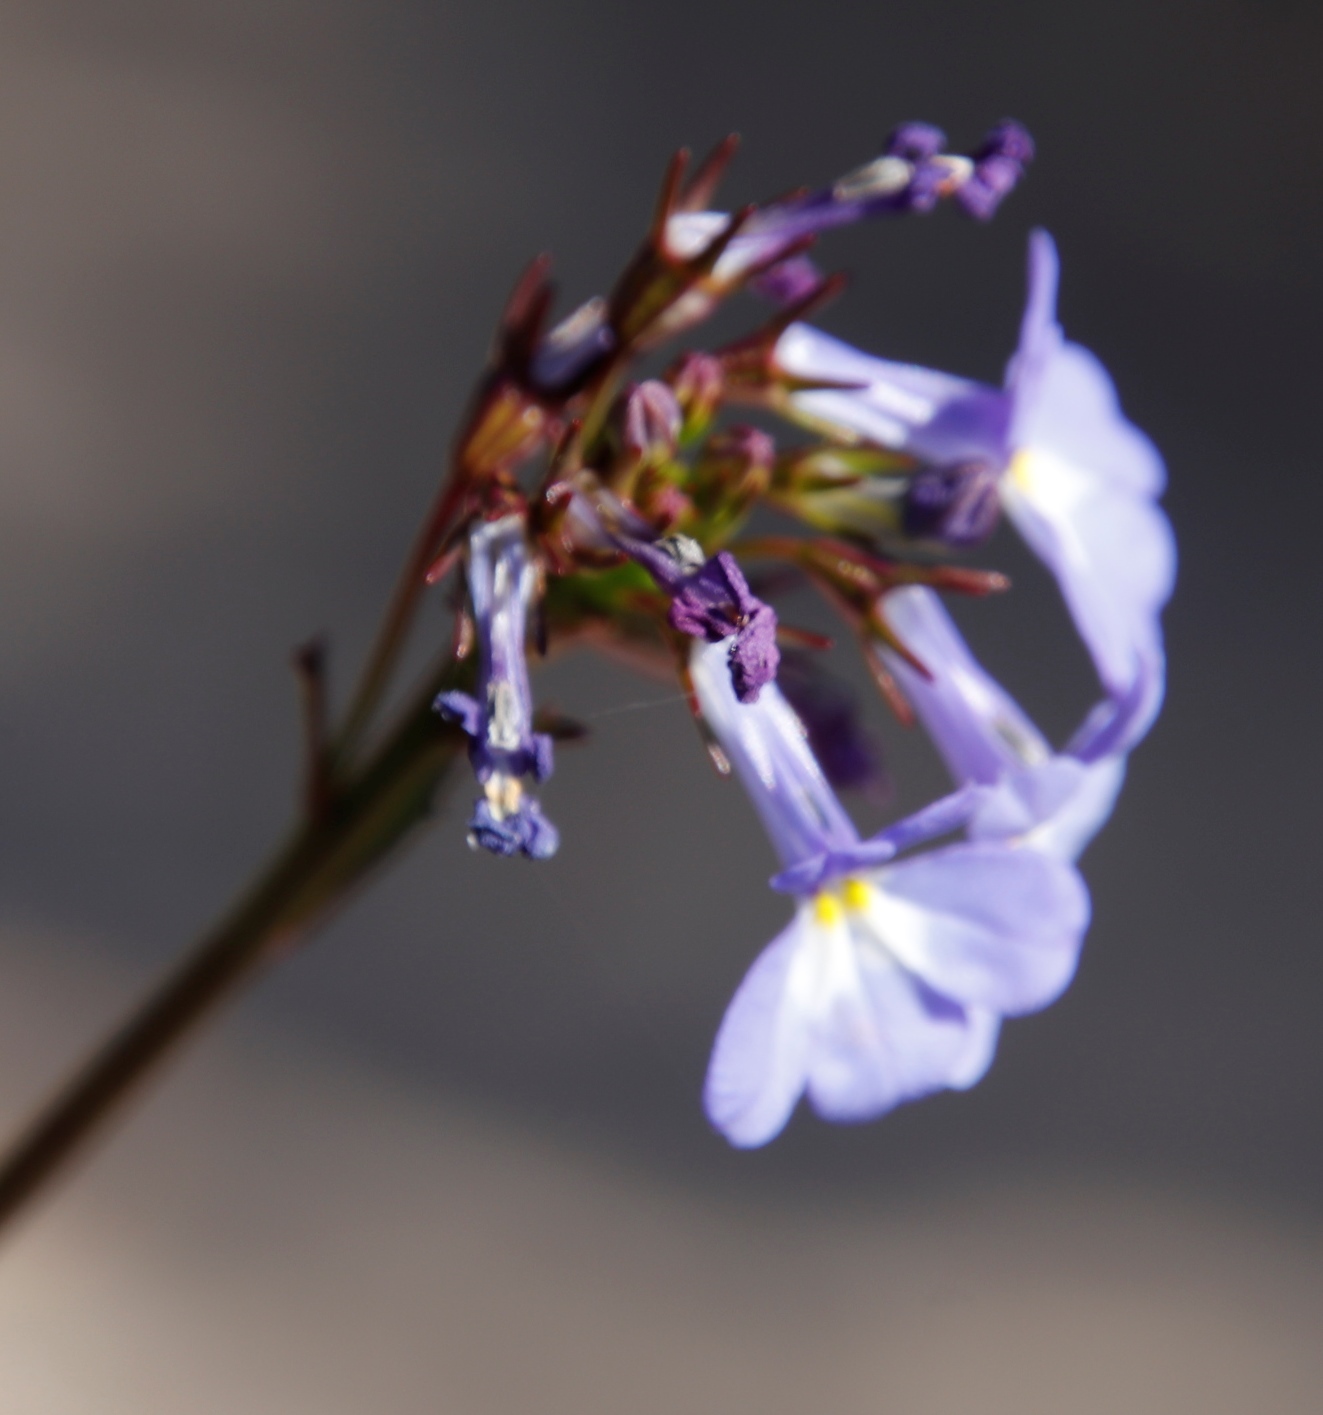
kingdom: Plantae
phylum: Tracheophyta
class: Magnoliopsida
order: Asterales
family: Campanulaceae
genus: Lobelia
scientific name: Lobelia comosa
